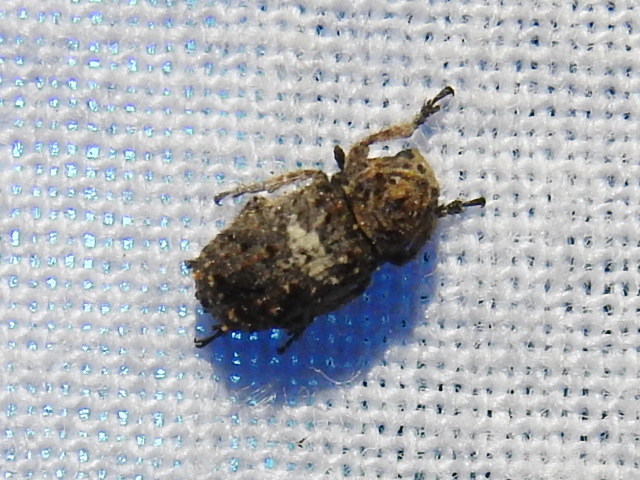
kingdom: Animalia
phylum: Arthropoda
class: Insecta
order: Coleoptera
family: Anthribidae
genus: Toxonotus
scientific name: Toxonotus cornutus
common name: Fungus weevil
